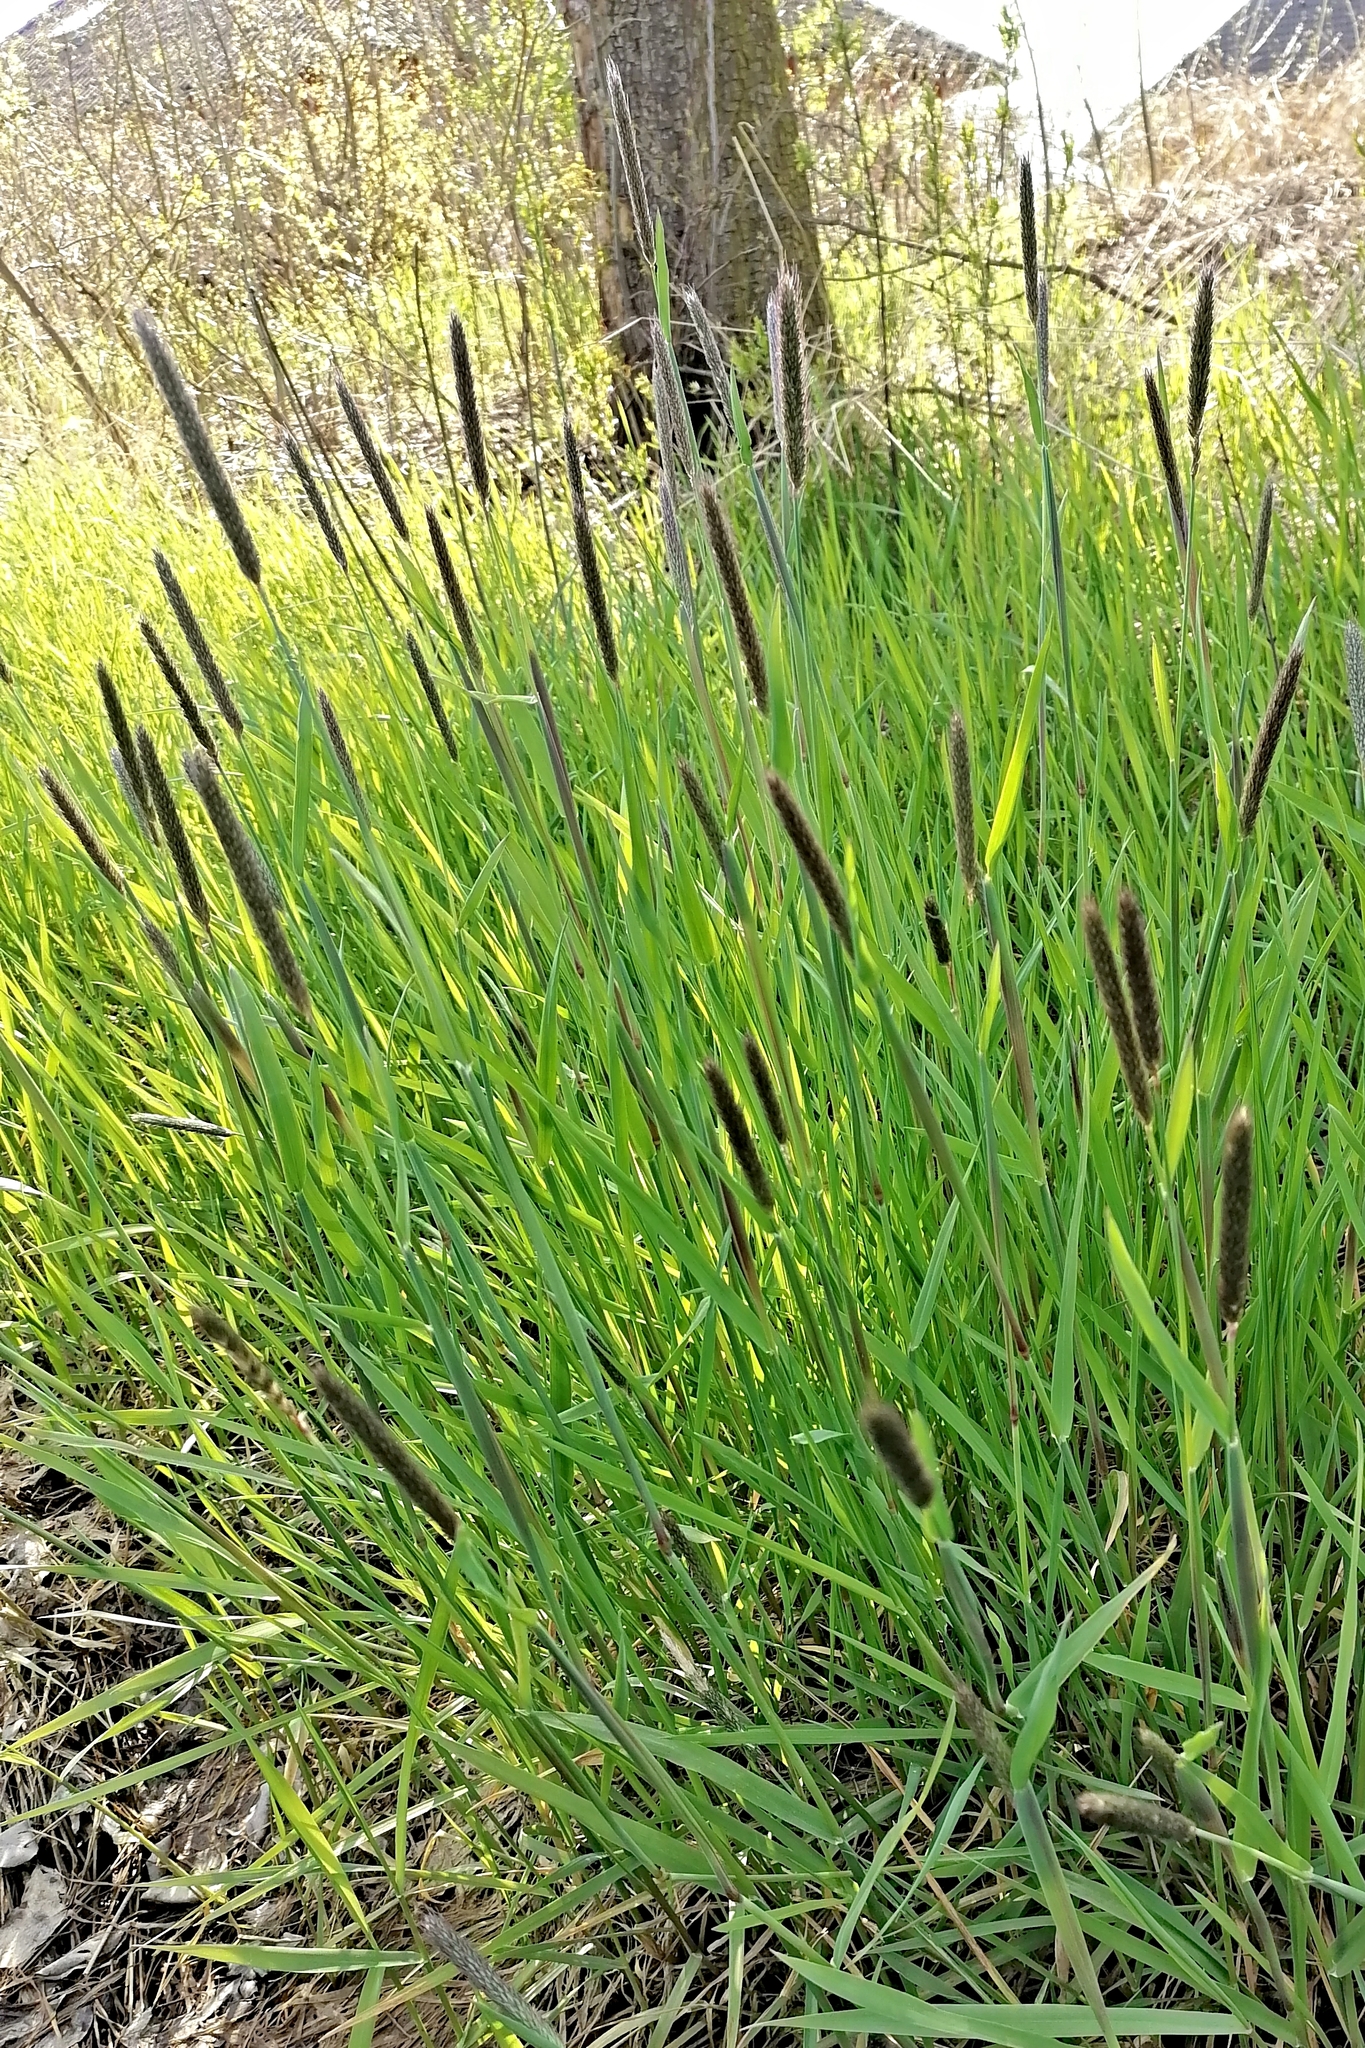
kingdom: Plantae
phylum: Tracheophyta
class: Liliopsida
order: Poales
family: Poaceae
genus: Alopecurus
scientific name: Alopecurus pratensis
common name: Meadow foxtail
